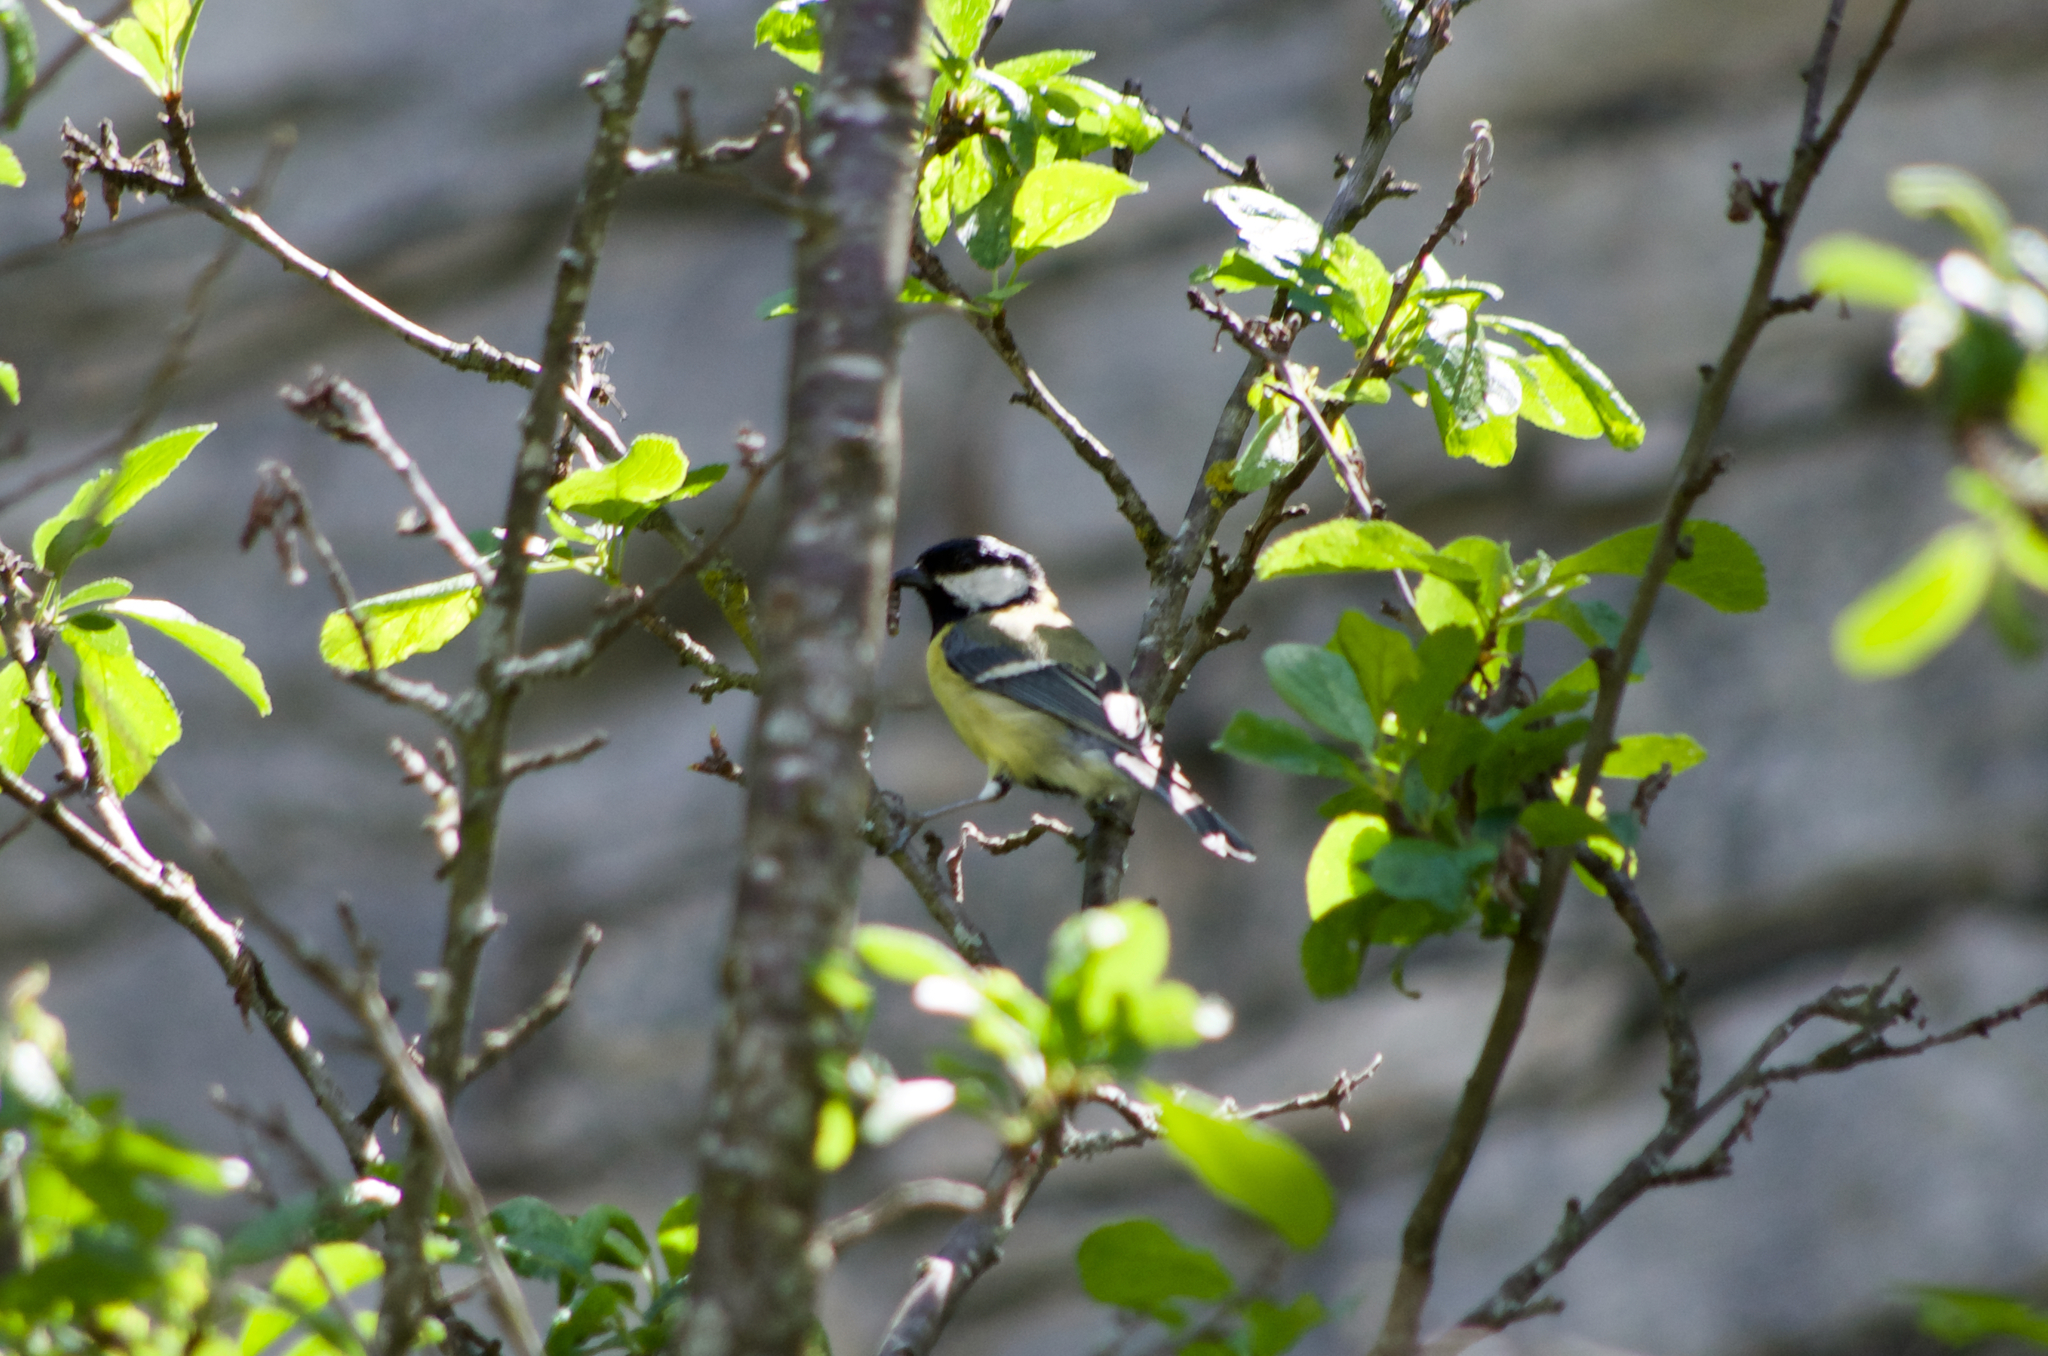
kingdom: Animalia
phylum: Chordata
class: Aves
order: Passeriformes
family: Paridae
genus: Parus
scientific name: Parus major
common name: Great tit
